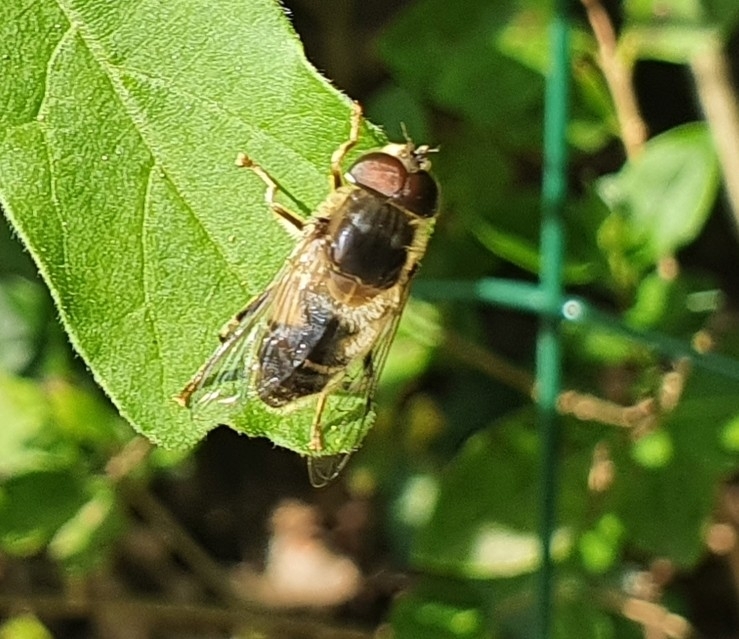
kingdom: Animalia
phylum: Arthropoda
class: Insecta
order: Diptera
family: Syrphidae
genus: Eristalis
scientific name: Eristalis pertinax
